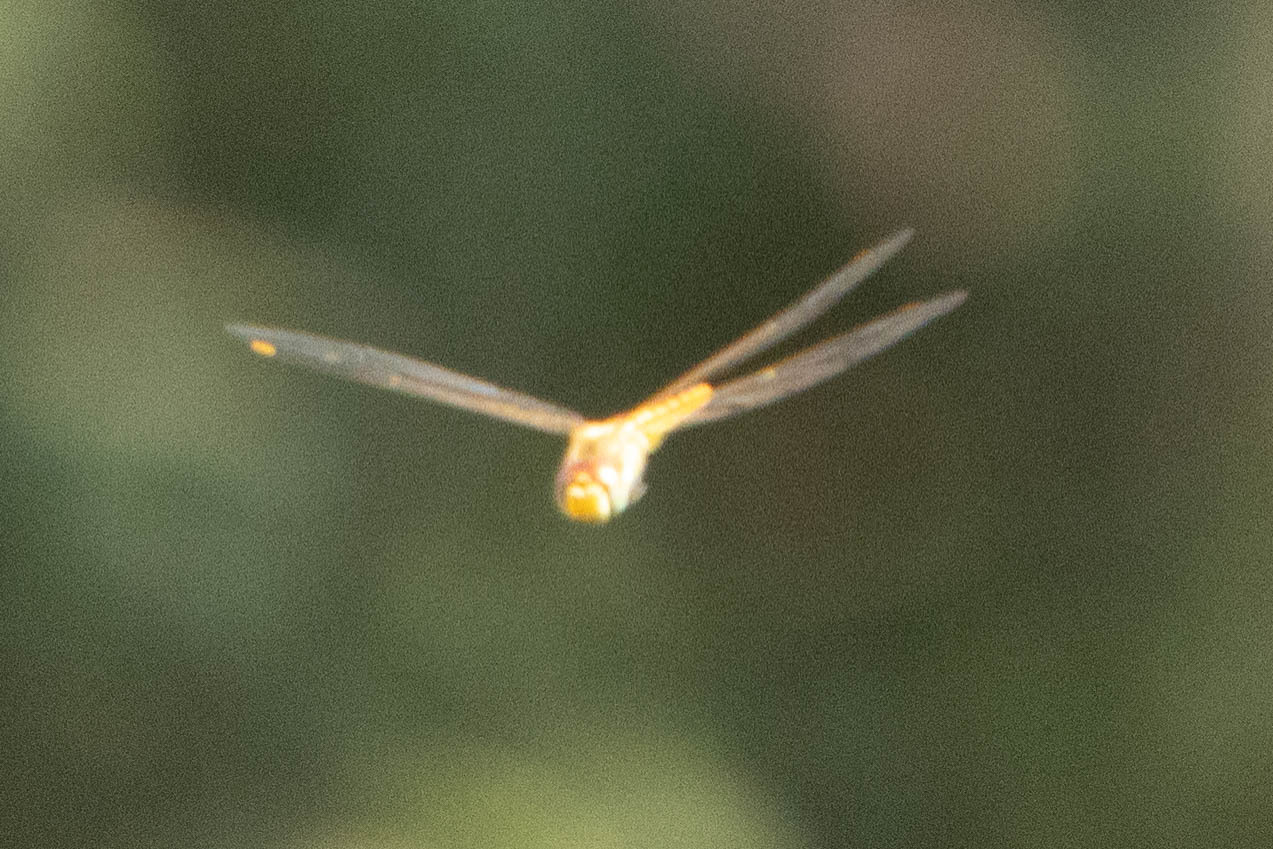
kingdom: Animalia
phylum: Arthropoda
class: Insecta
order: Odonata
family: Libellulidae
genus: Pantala
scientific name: Pantala flavescens
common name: Wandering glider
